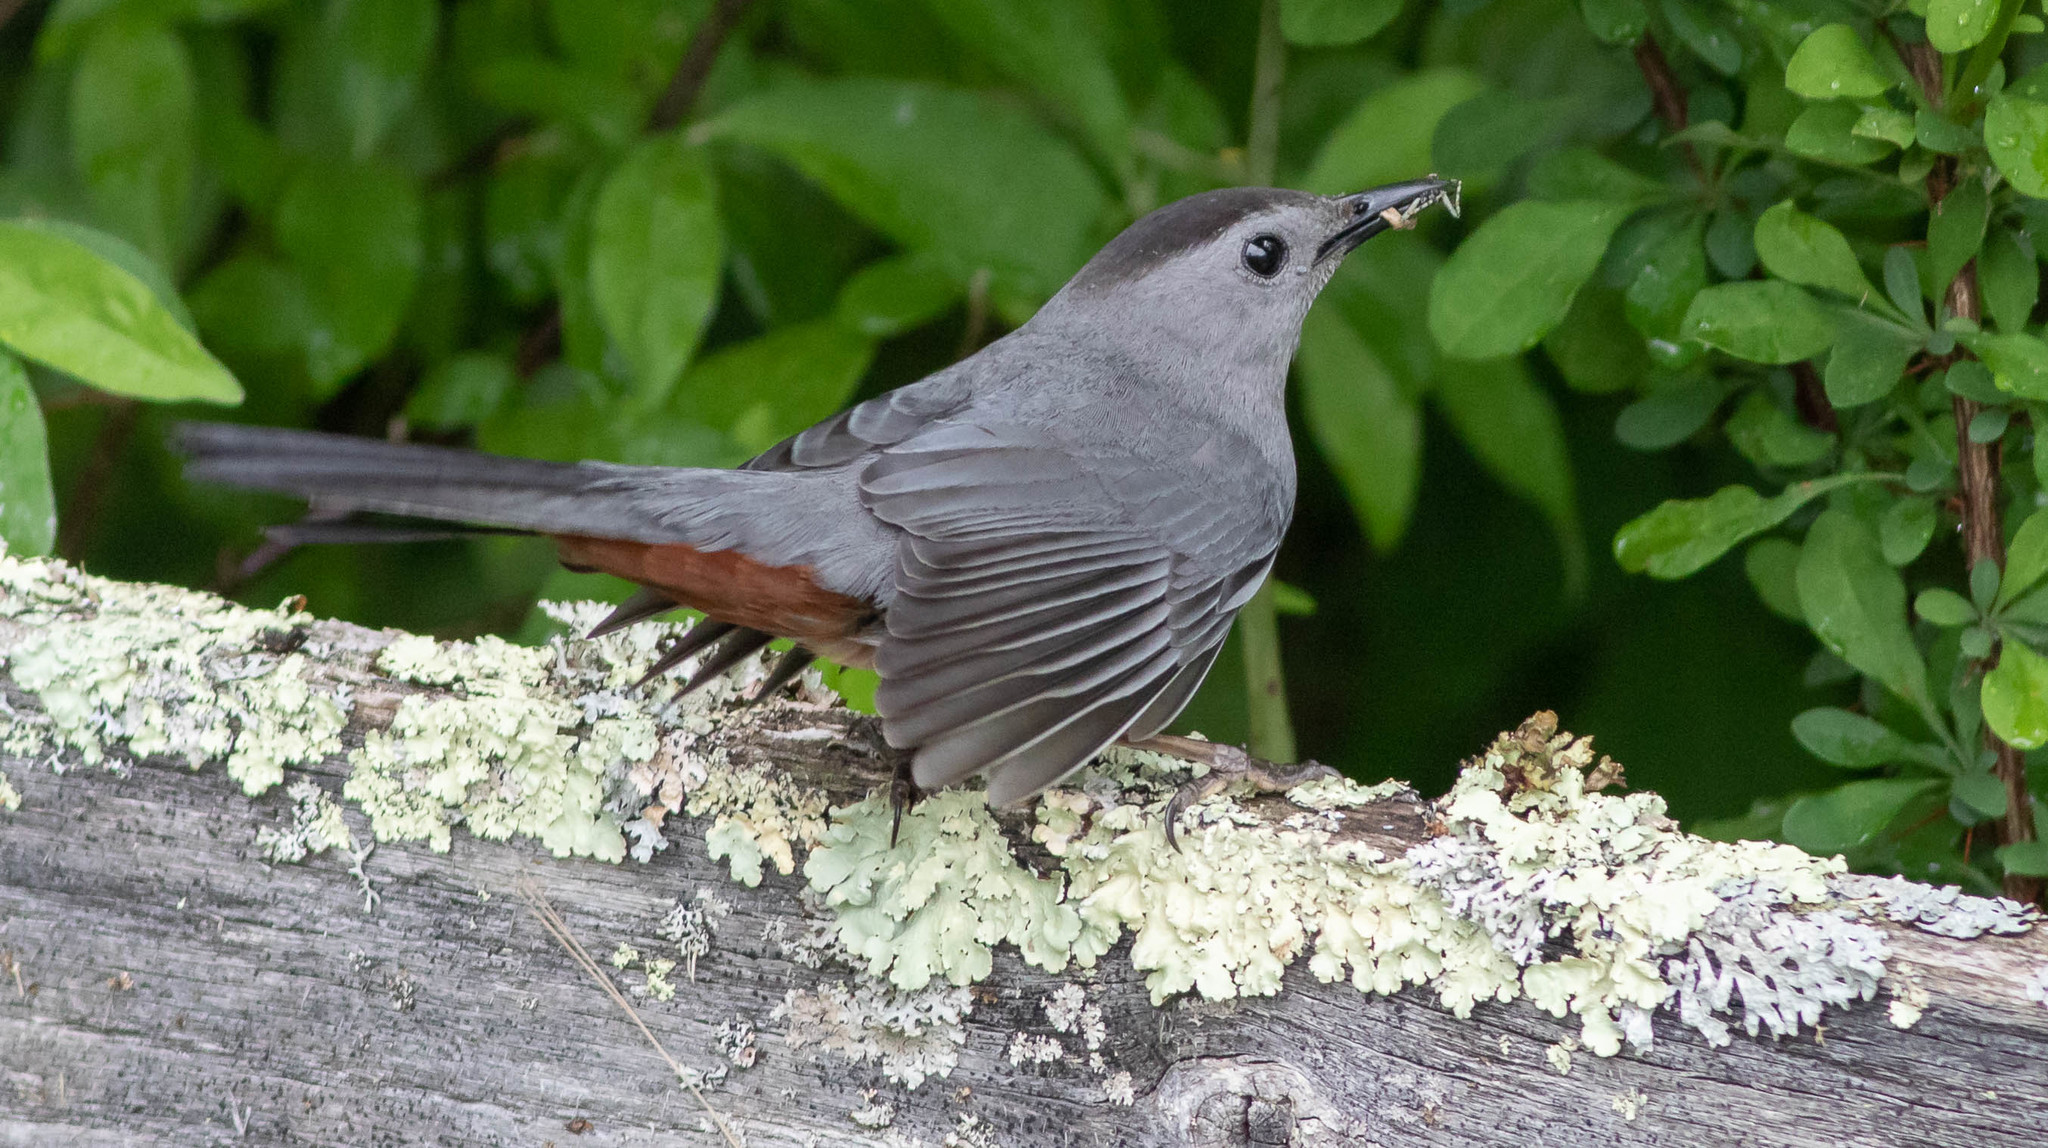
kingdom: Animalia
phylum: Chordata
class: Aves
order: Passeriformes
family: Mimidae
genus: Dumetella
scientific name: Dumetella carolinensis
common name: Gray catbird
